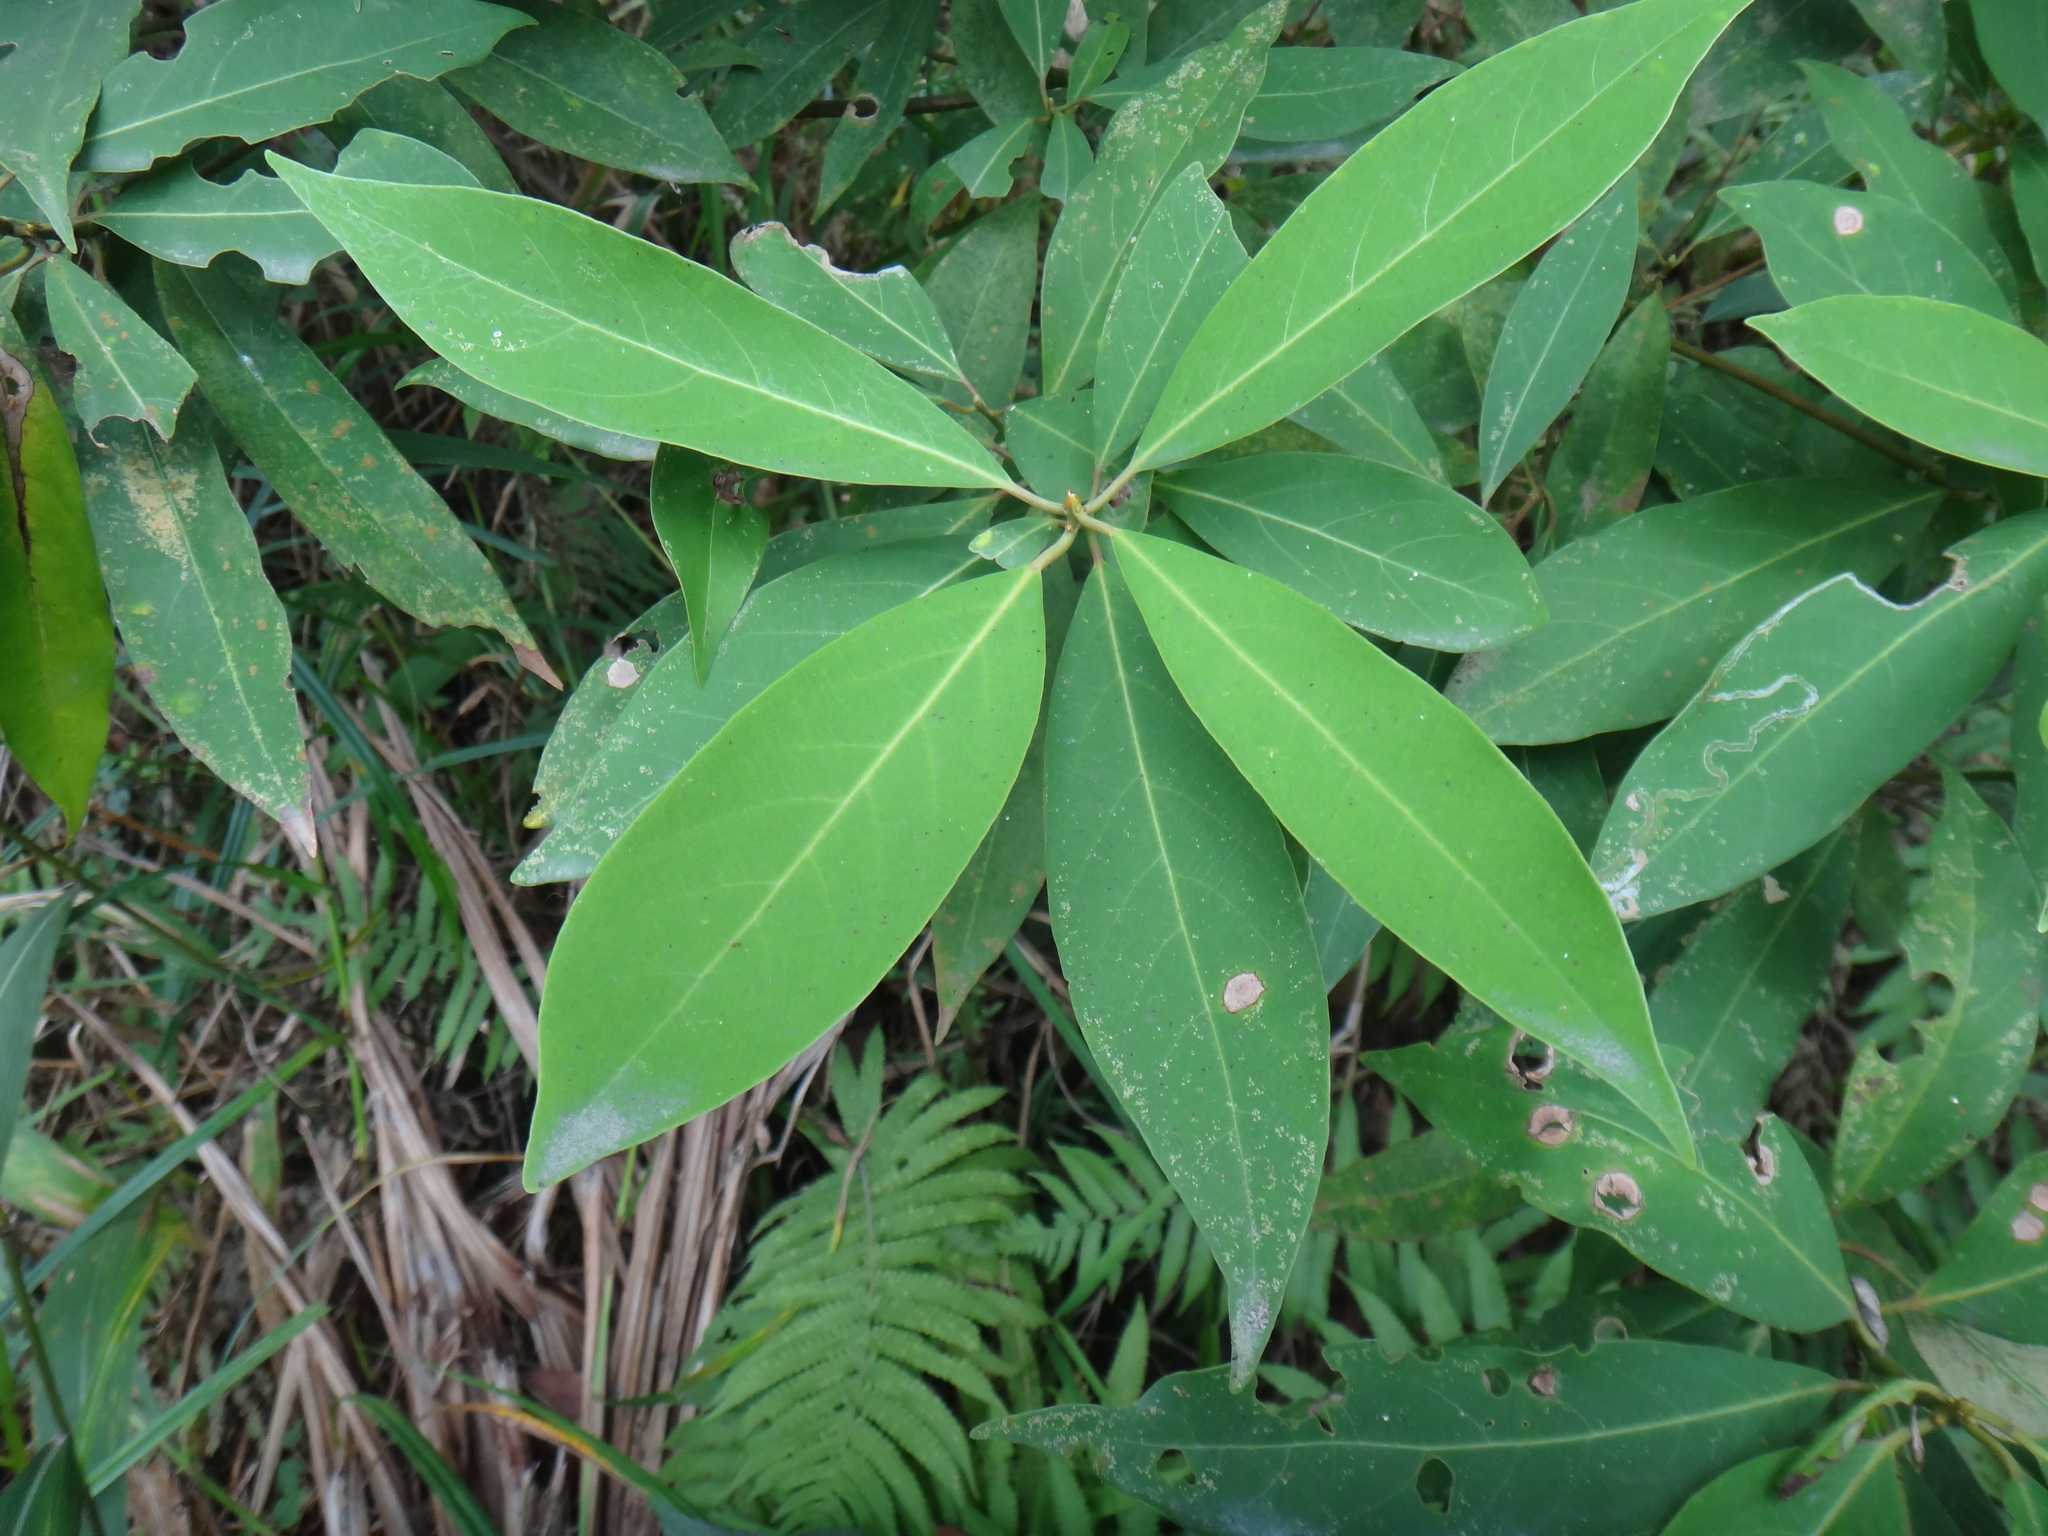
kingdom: Plantae
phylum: Tracheophyta
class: Magnoliopsida
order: Laurales
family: Lauraceae
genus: Machilus
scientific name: Machilus zuihoensis
